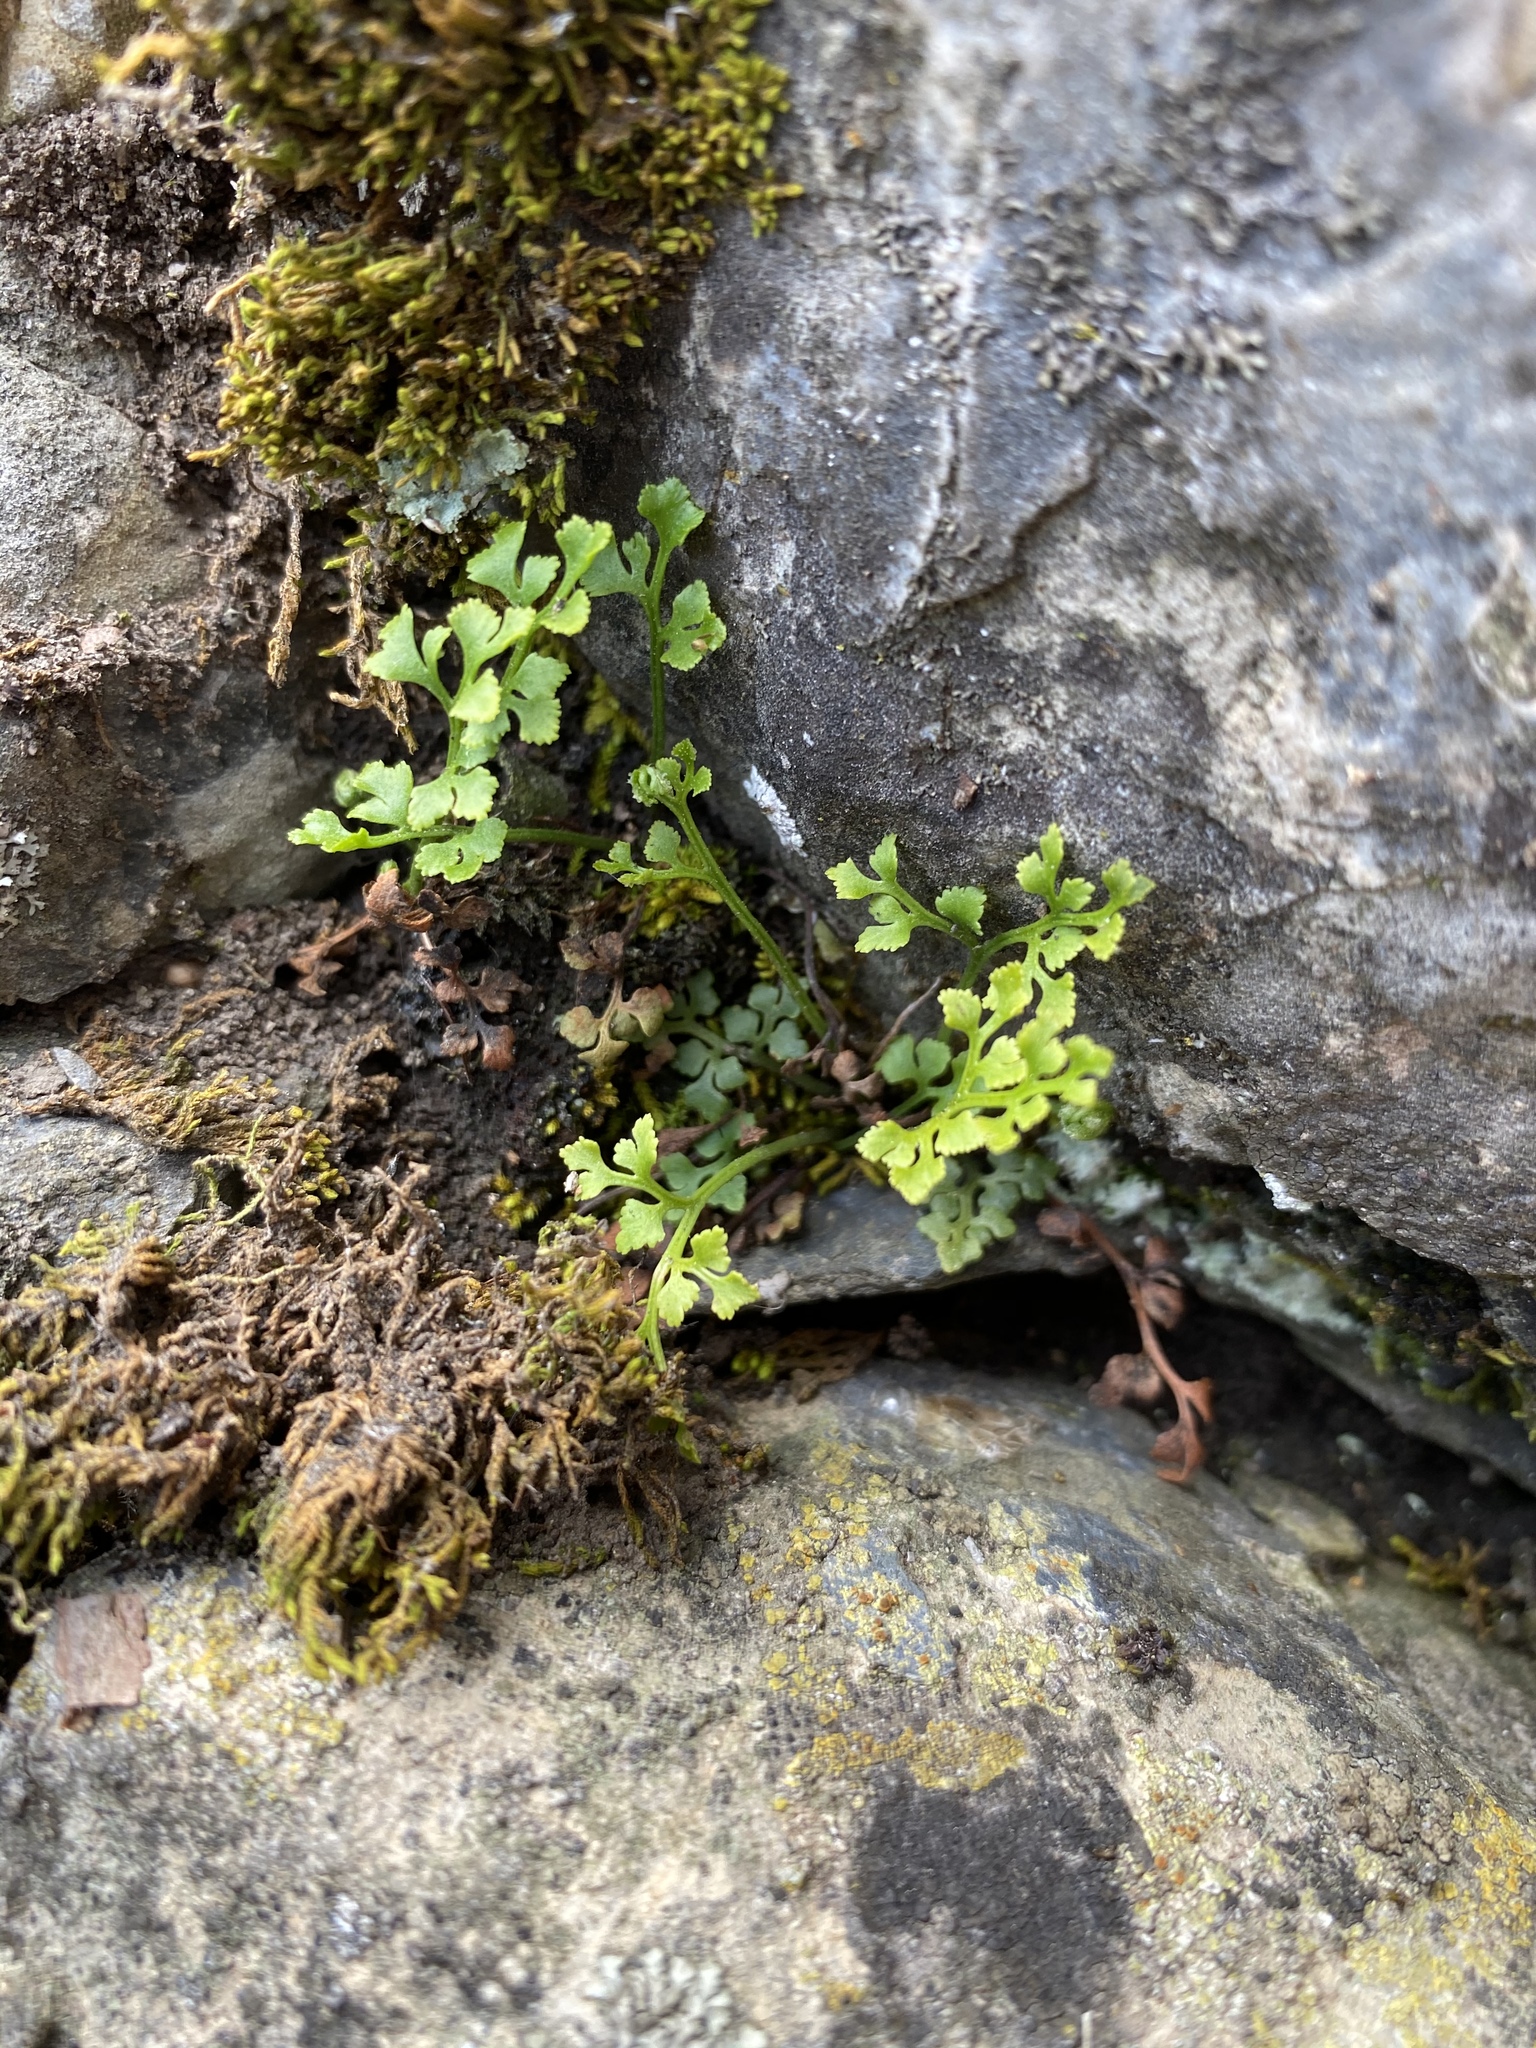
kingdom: Plantae
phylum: Tracheophyta
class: Polypodiopsida
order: Polypodiales
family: Aspleniaceae
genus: Asplenium
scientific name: Asplenium ruta-muraria
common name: Wall-rue
